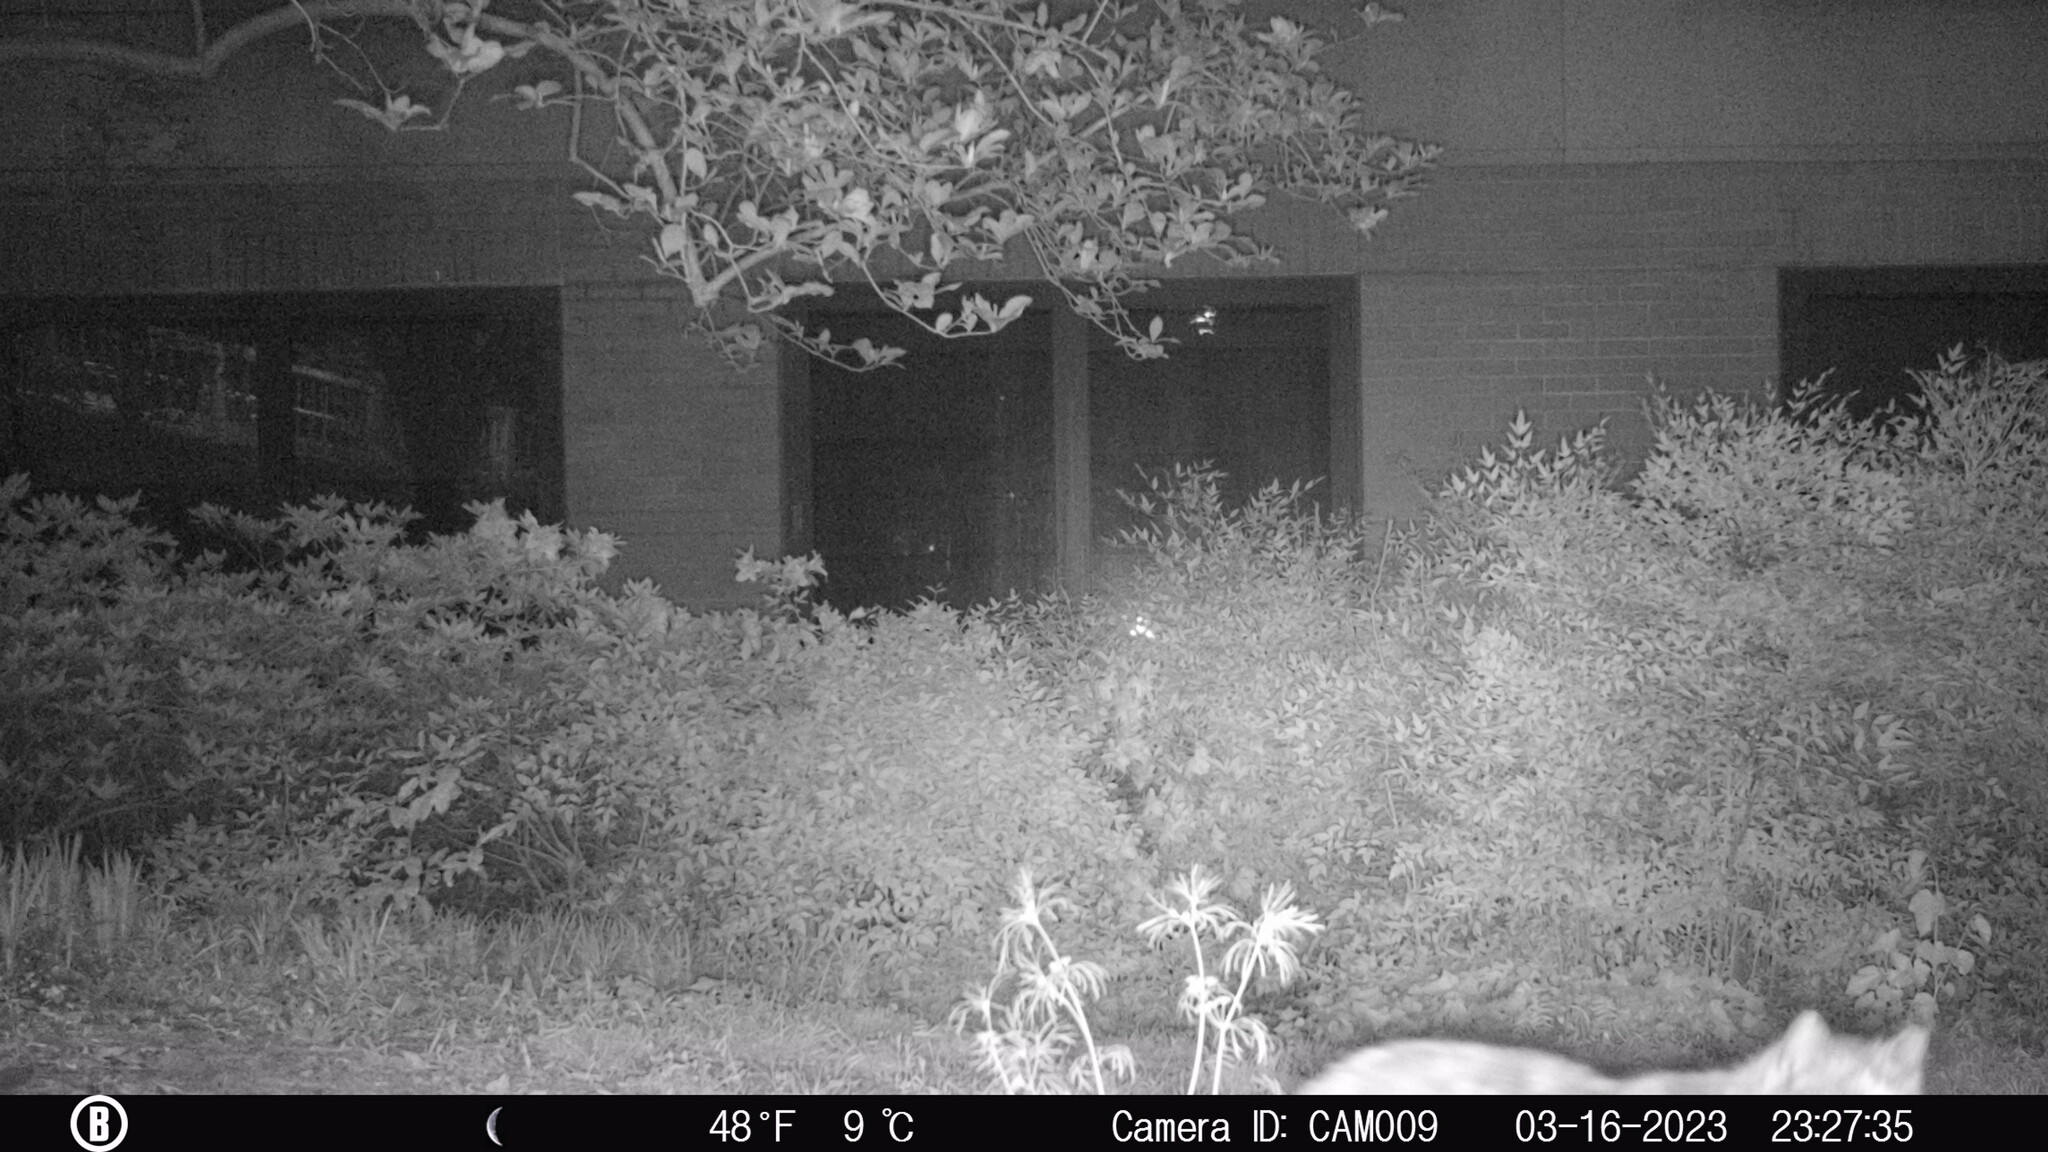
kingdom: Animalia
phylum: Chordata
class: Mammalia
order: Carnivora
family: Felidae
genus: Felis
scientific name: Felis catus
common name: Domestic cat
